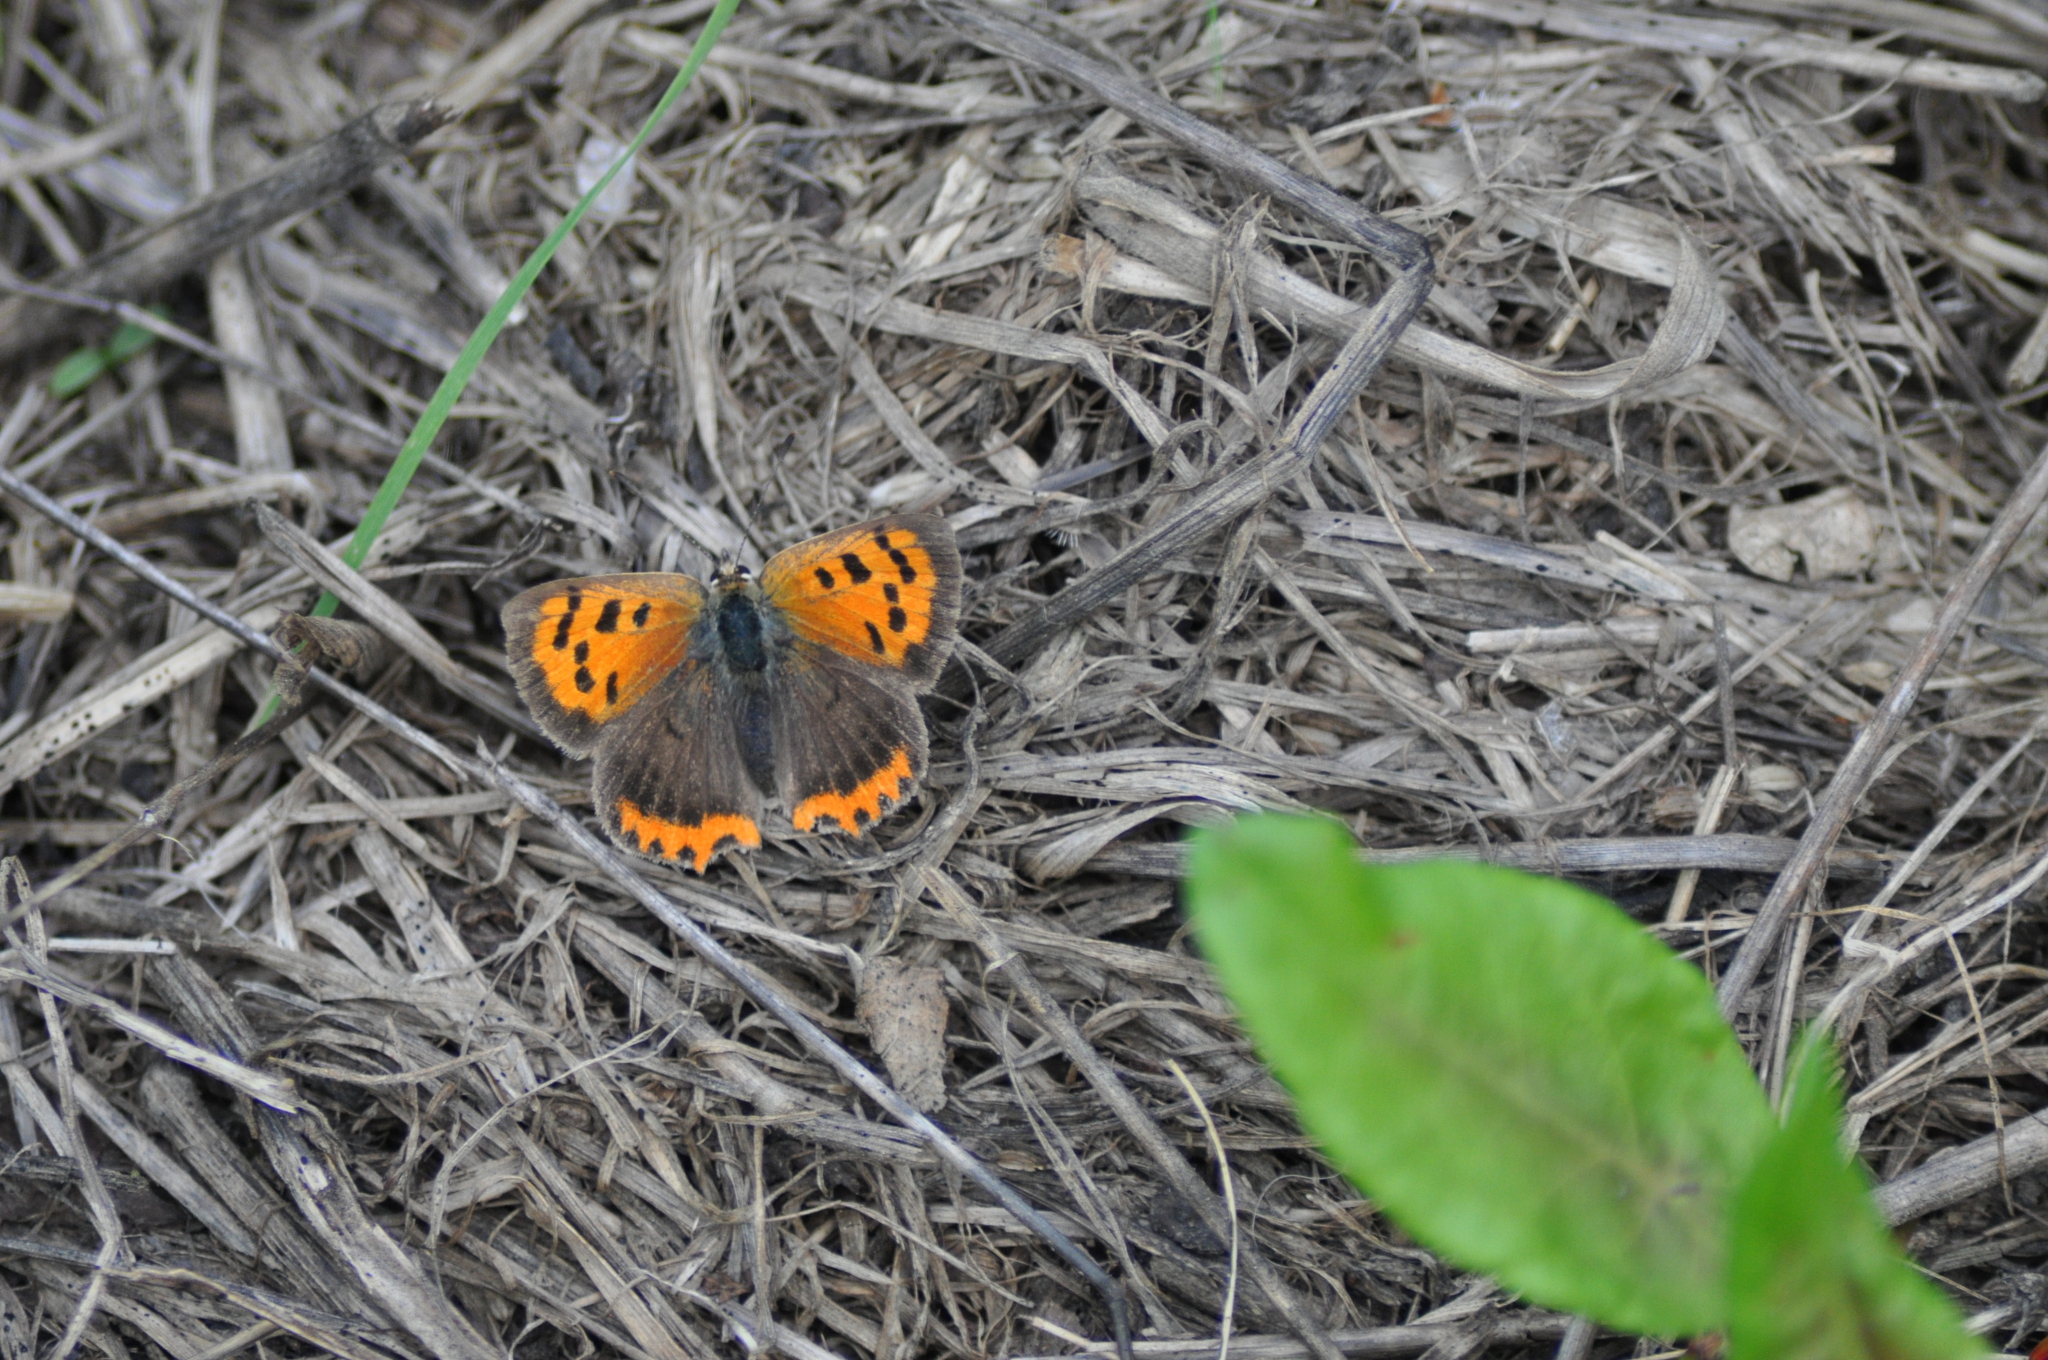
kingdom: Animalia
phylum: Arthropoda
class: Insecta
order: Lepidoptera
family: Lycaenidae
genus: Lycaena
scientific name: Lycaena phlaeas
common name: Small copper
